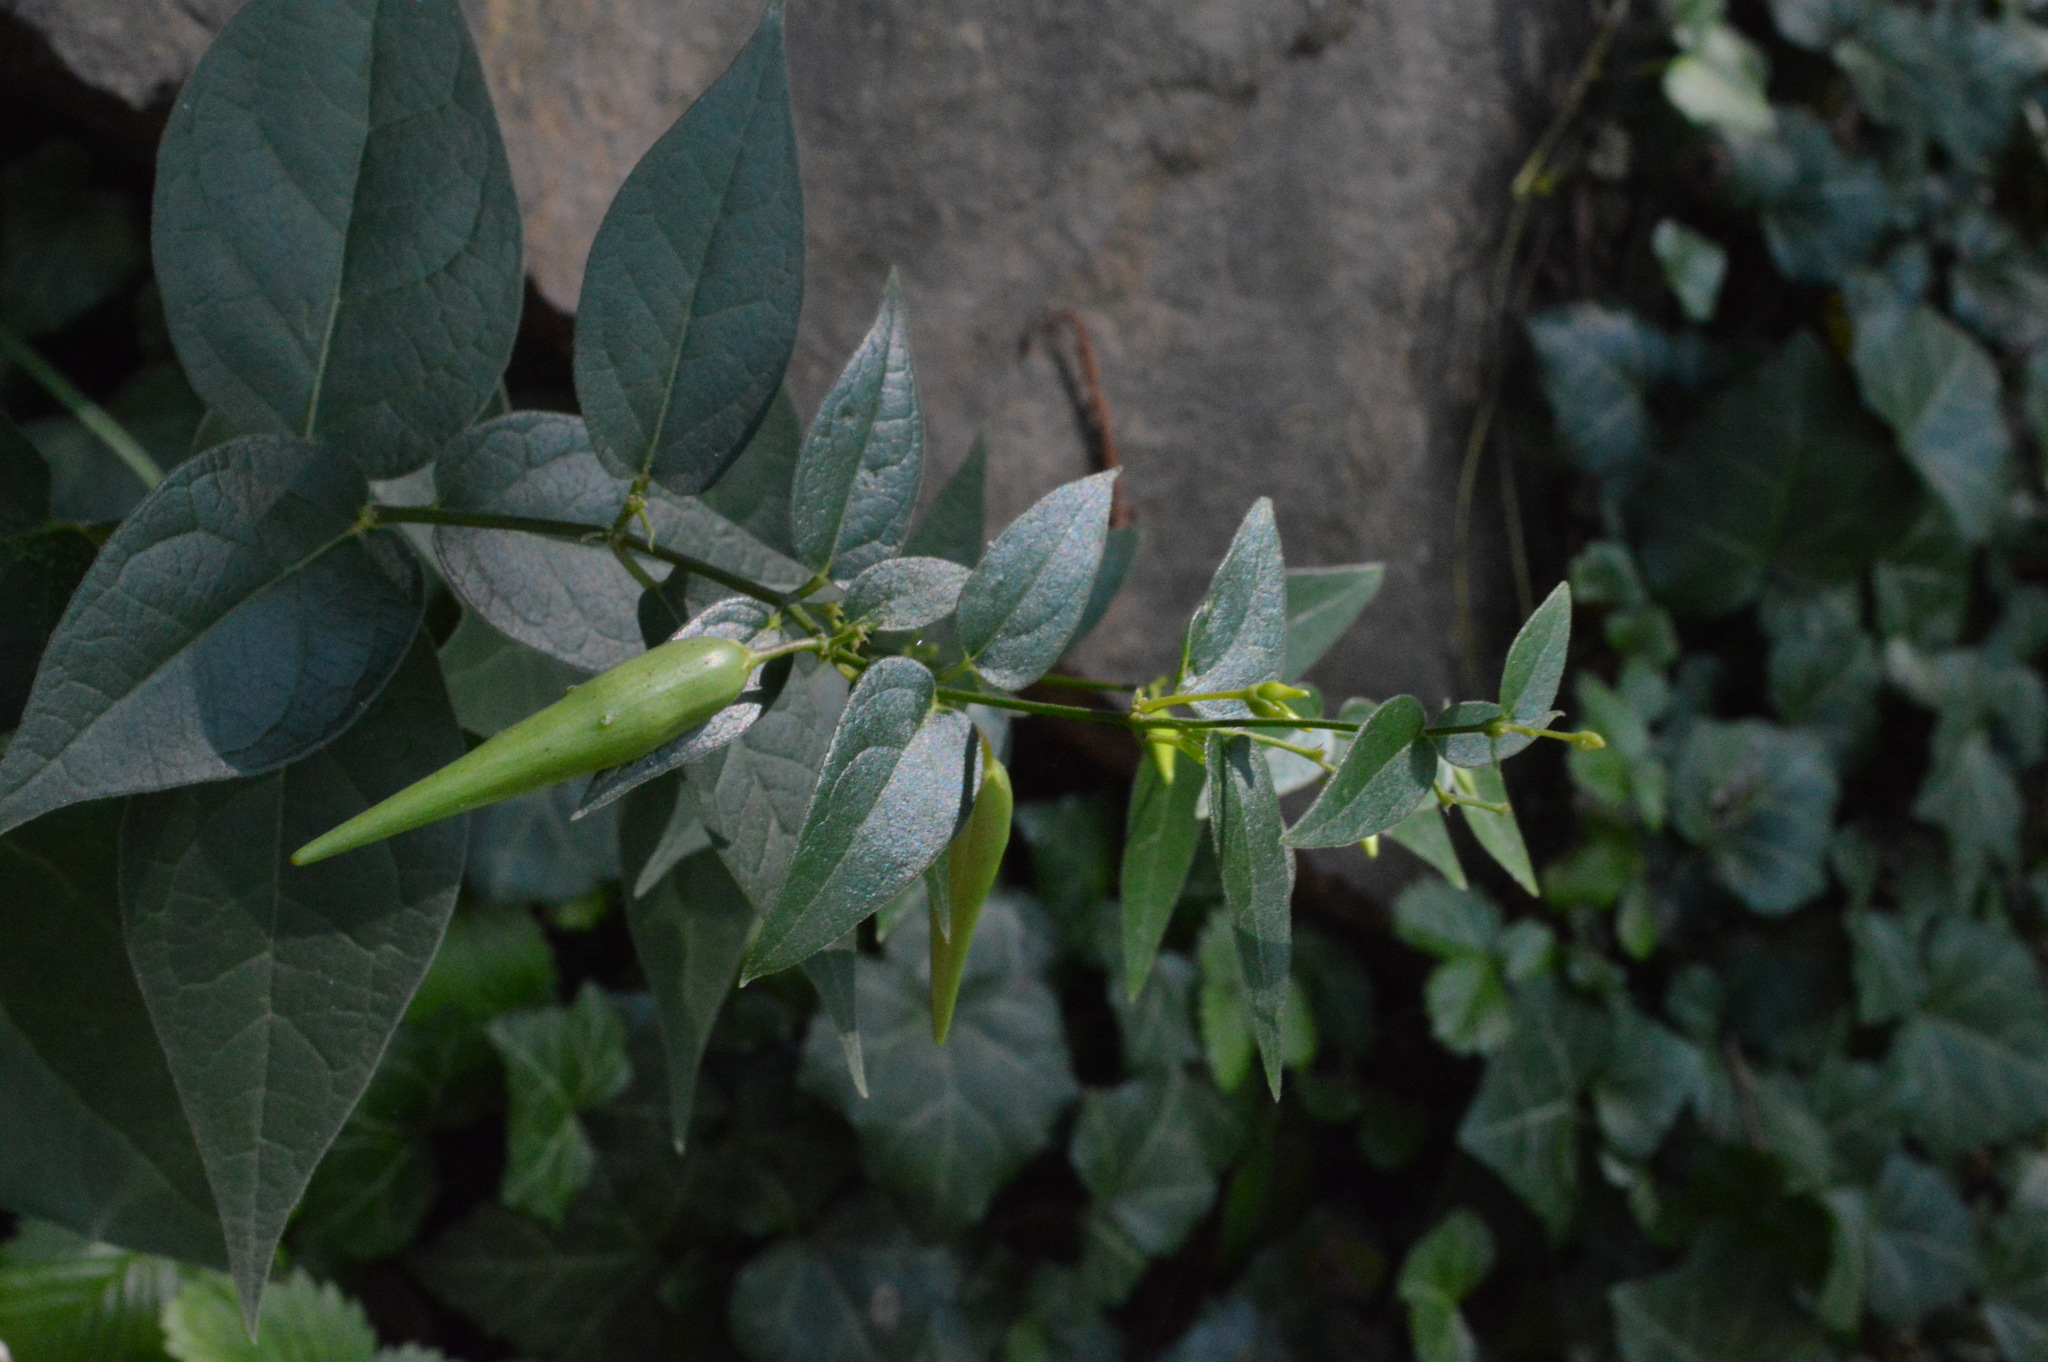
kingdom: Plantae
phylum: Tracheophyta
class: Magnoliopsida
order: Gentianales
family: Apocynaceae
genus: Vincetoxicum
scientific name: Vincetoxicum hirundinaria
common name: White swallowwort
